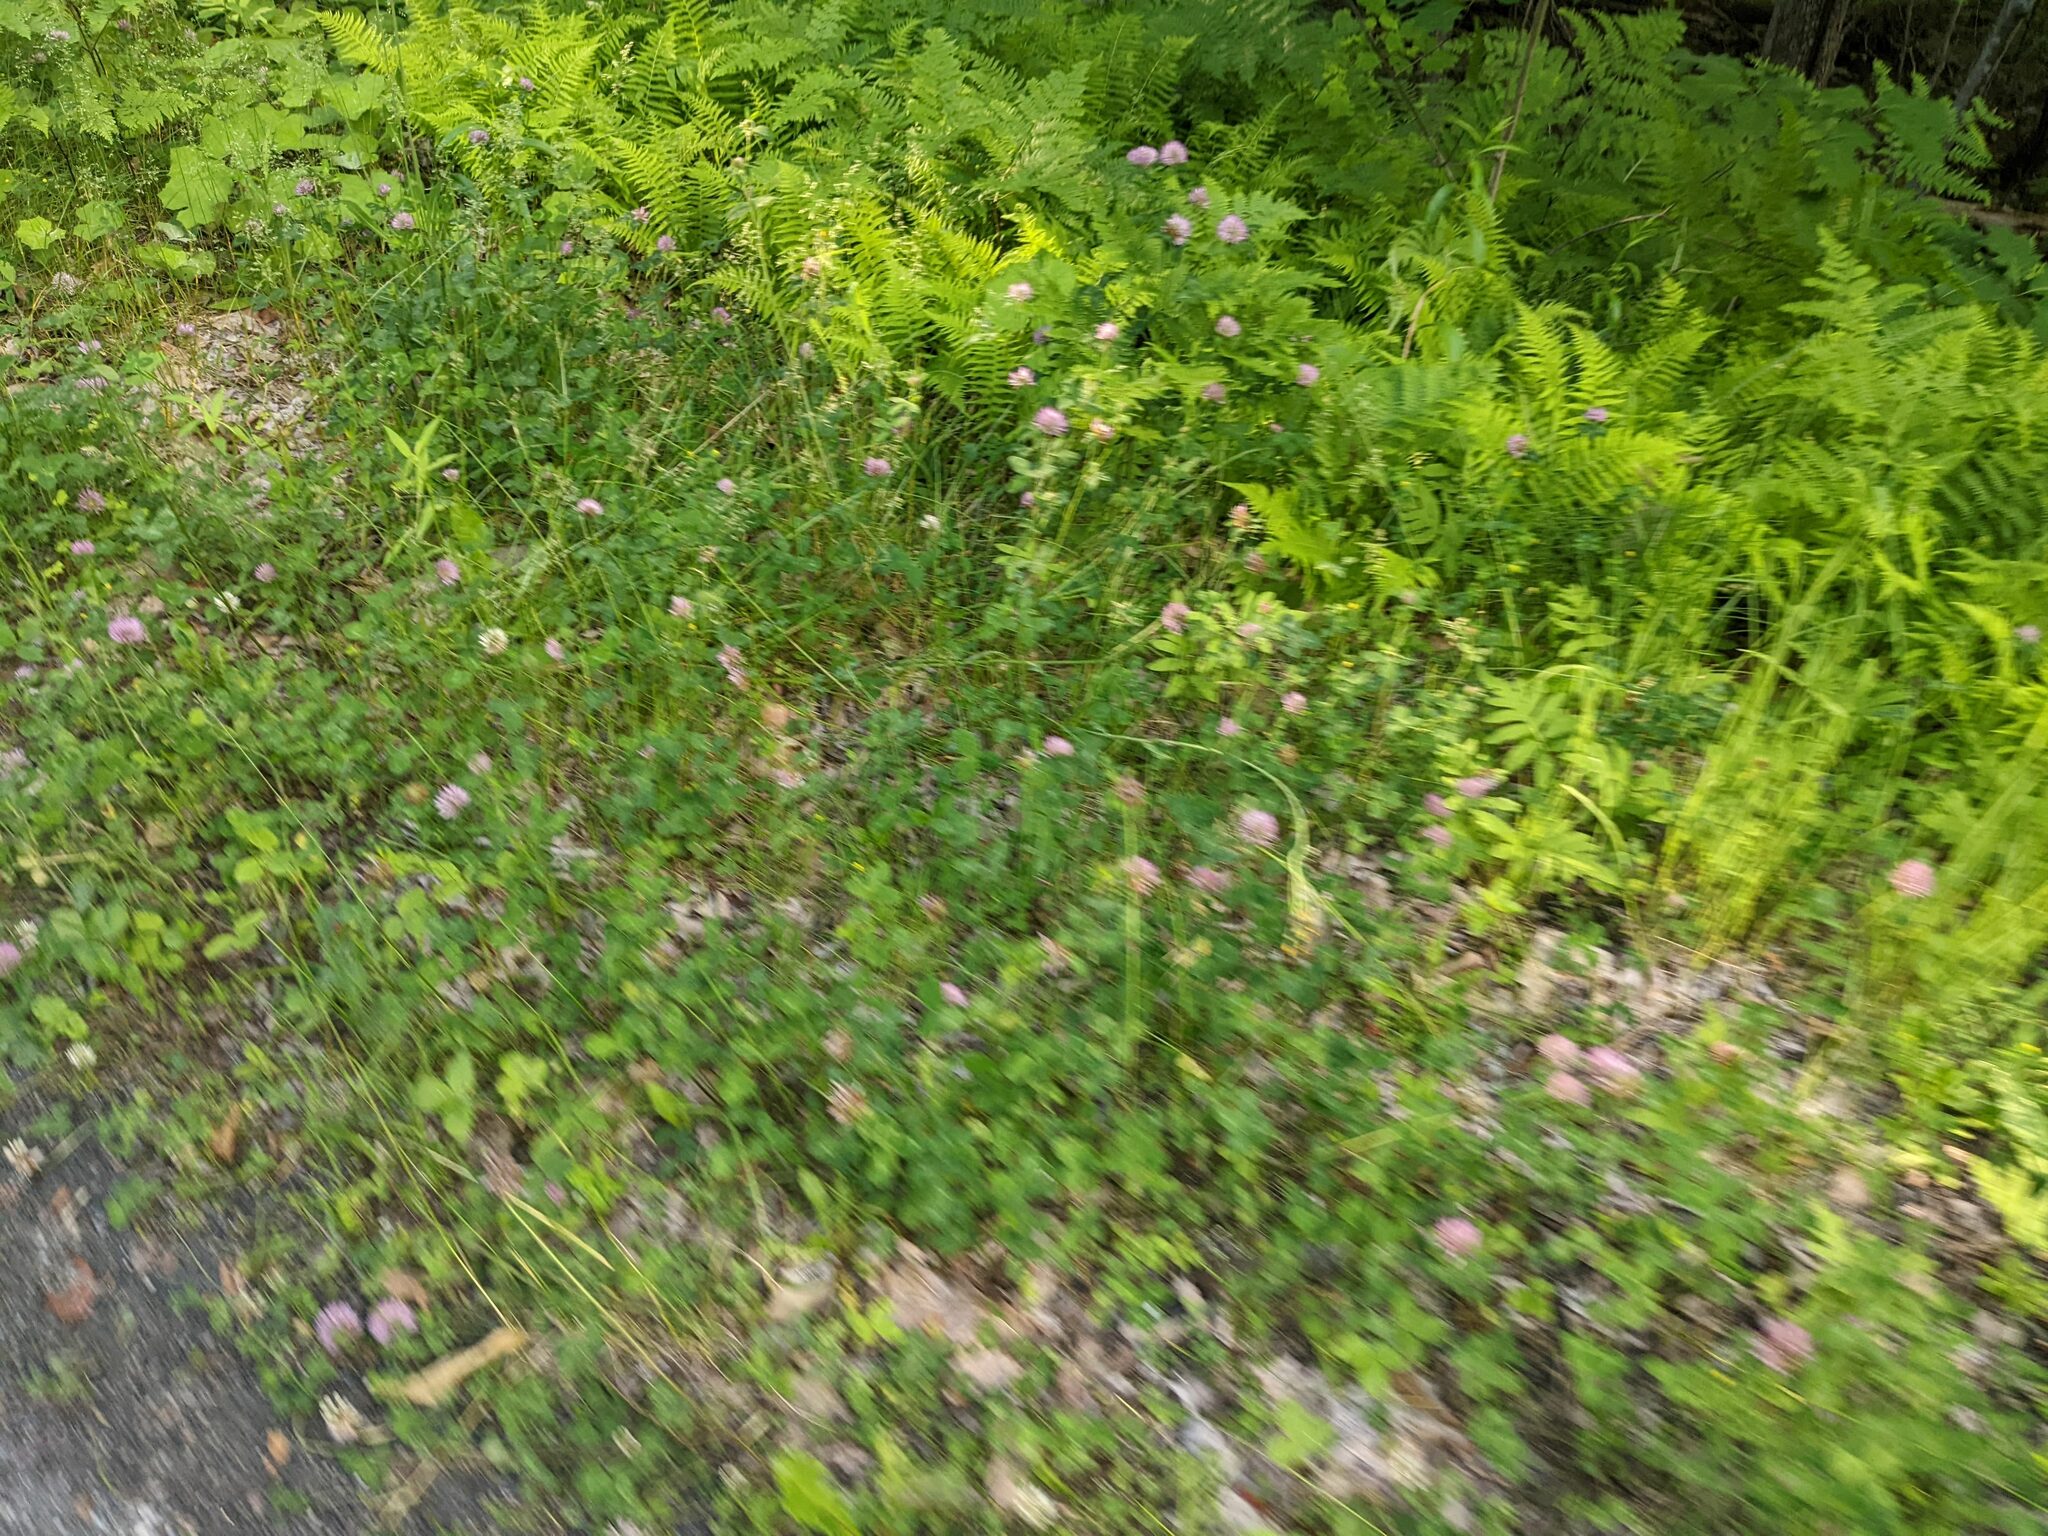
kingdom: Plantae
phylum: Tracheophyta
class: Magnoliopsida
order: Fabales
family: Fabaceae
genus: Trifolium
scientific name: Trifolium pratense
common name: Red clover
